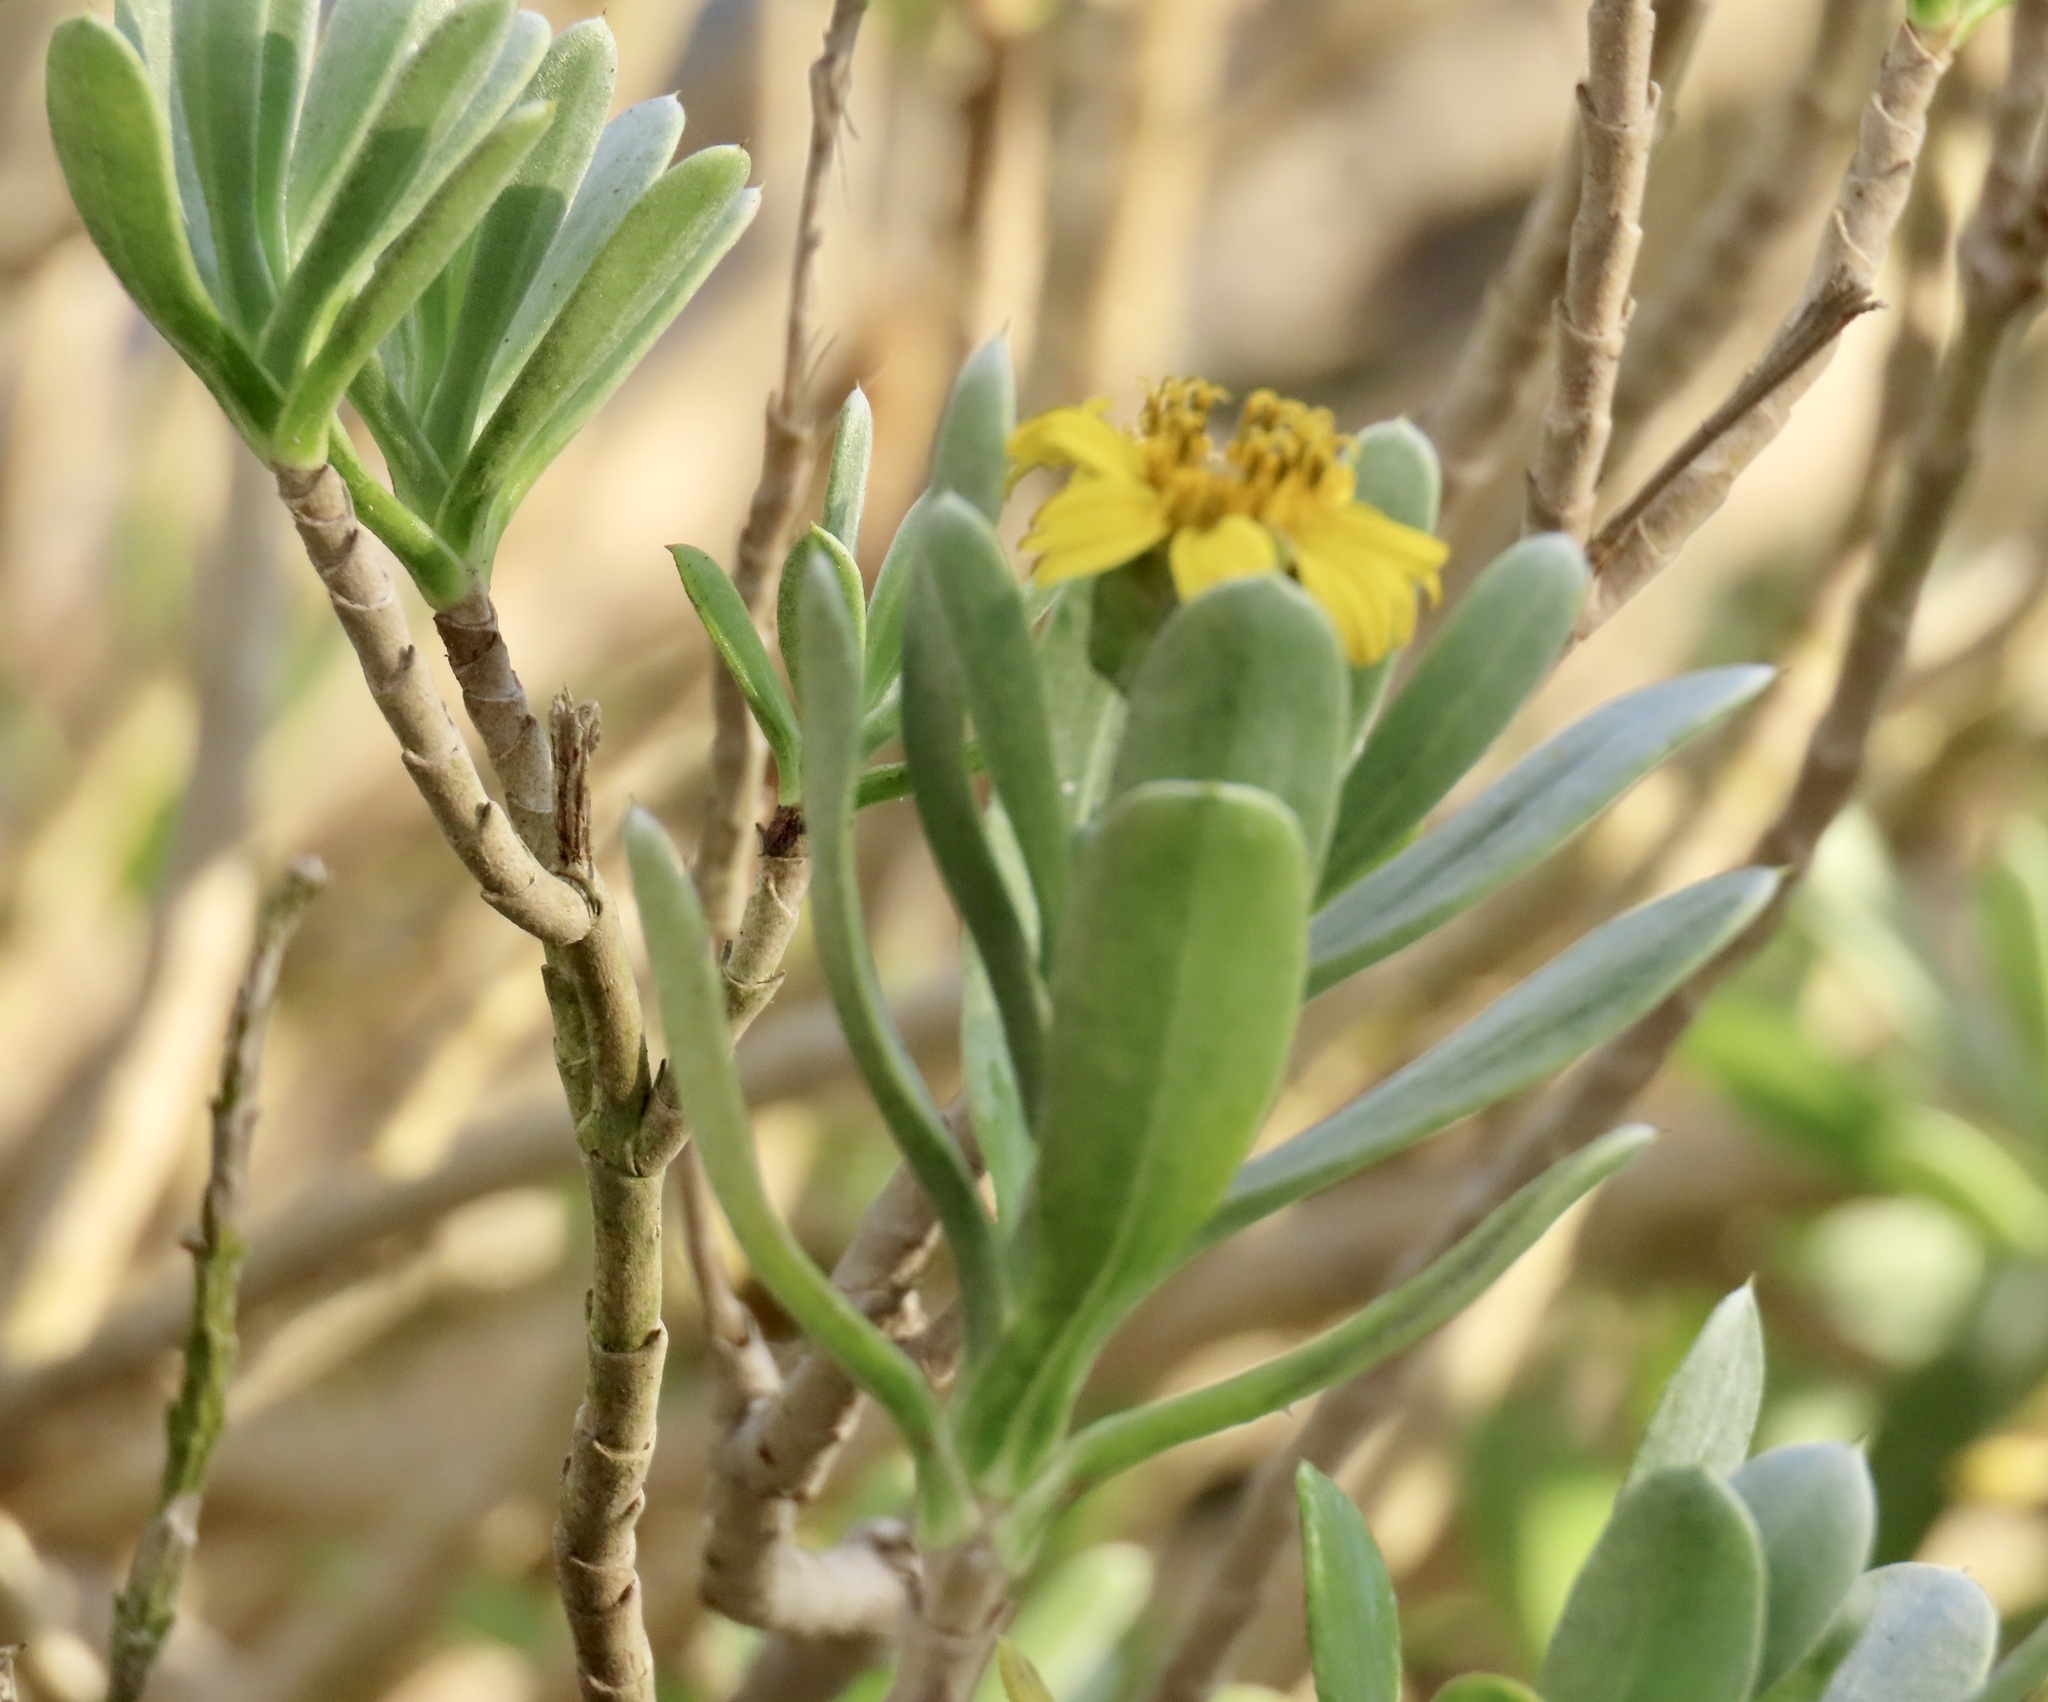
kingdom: Plantae
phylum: Tracheophyta
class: Magnoliopsida
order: Asterales
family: Asteraceae
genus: Borrichia
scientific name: Borrichia arborescens
